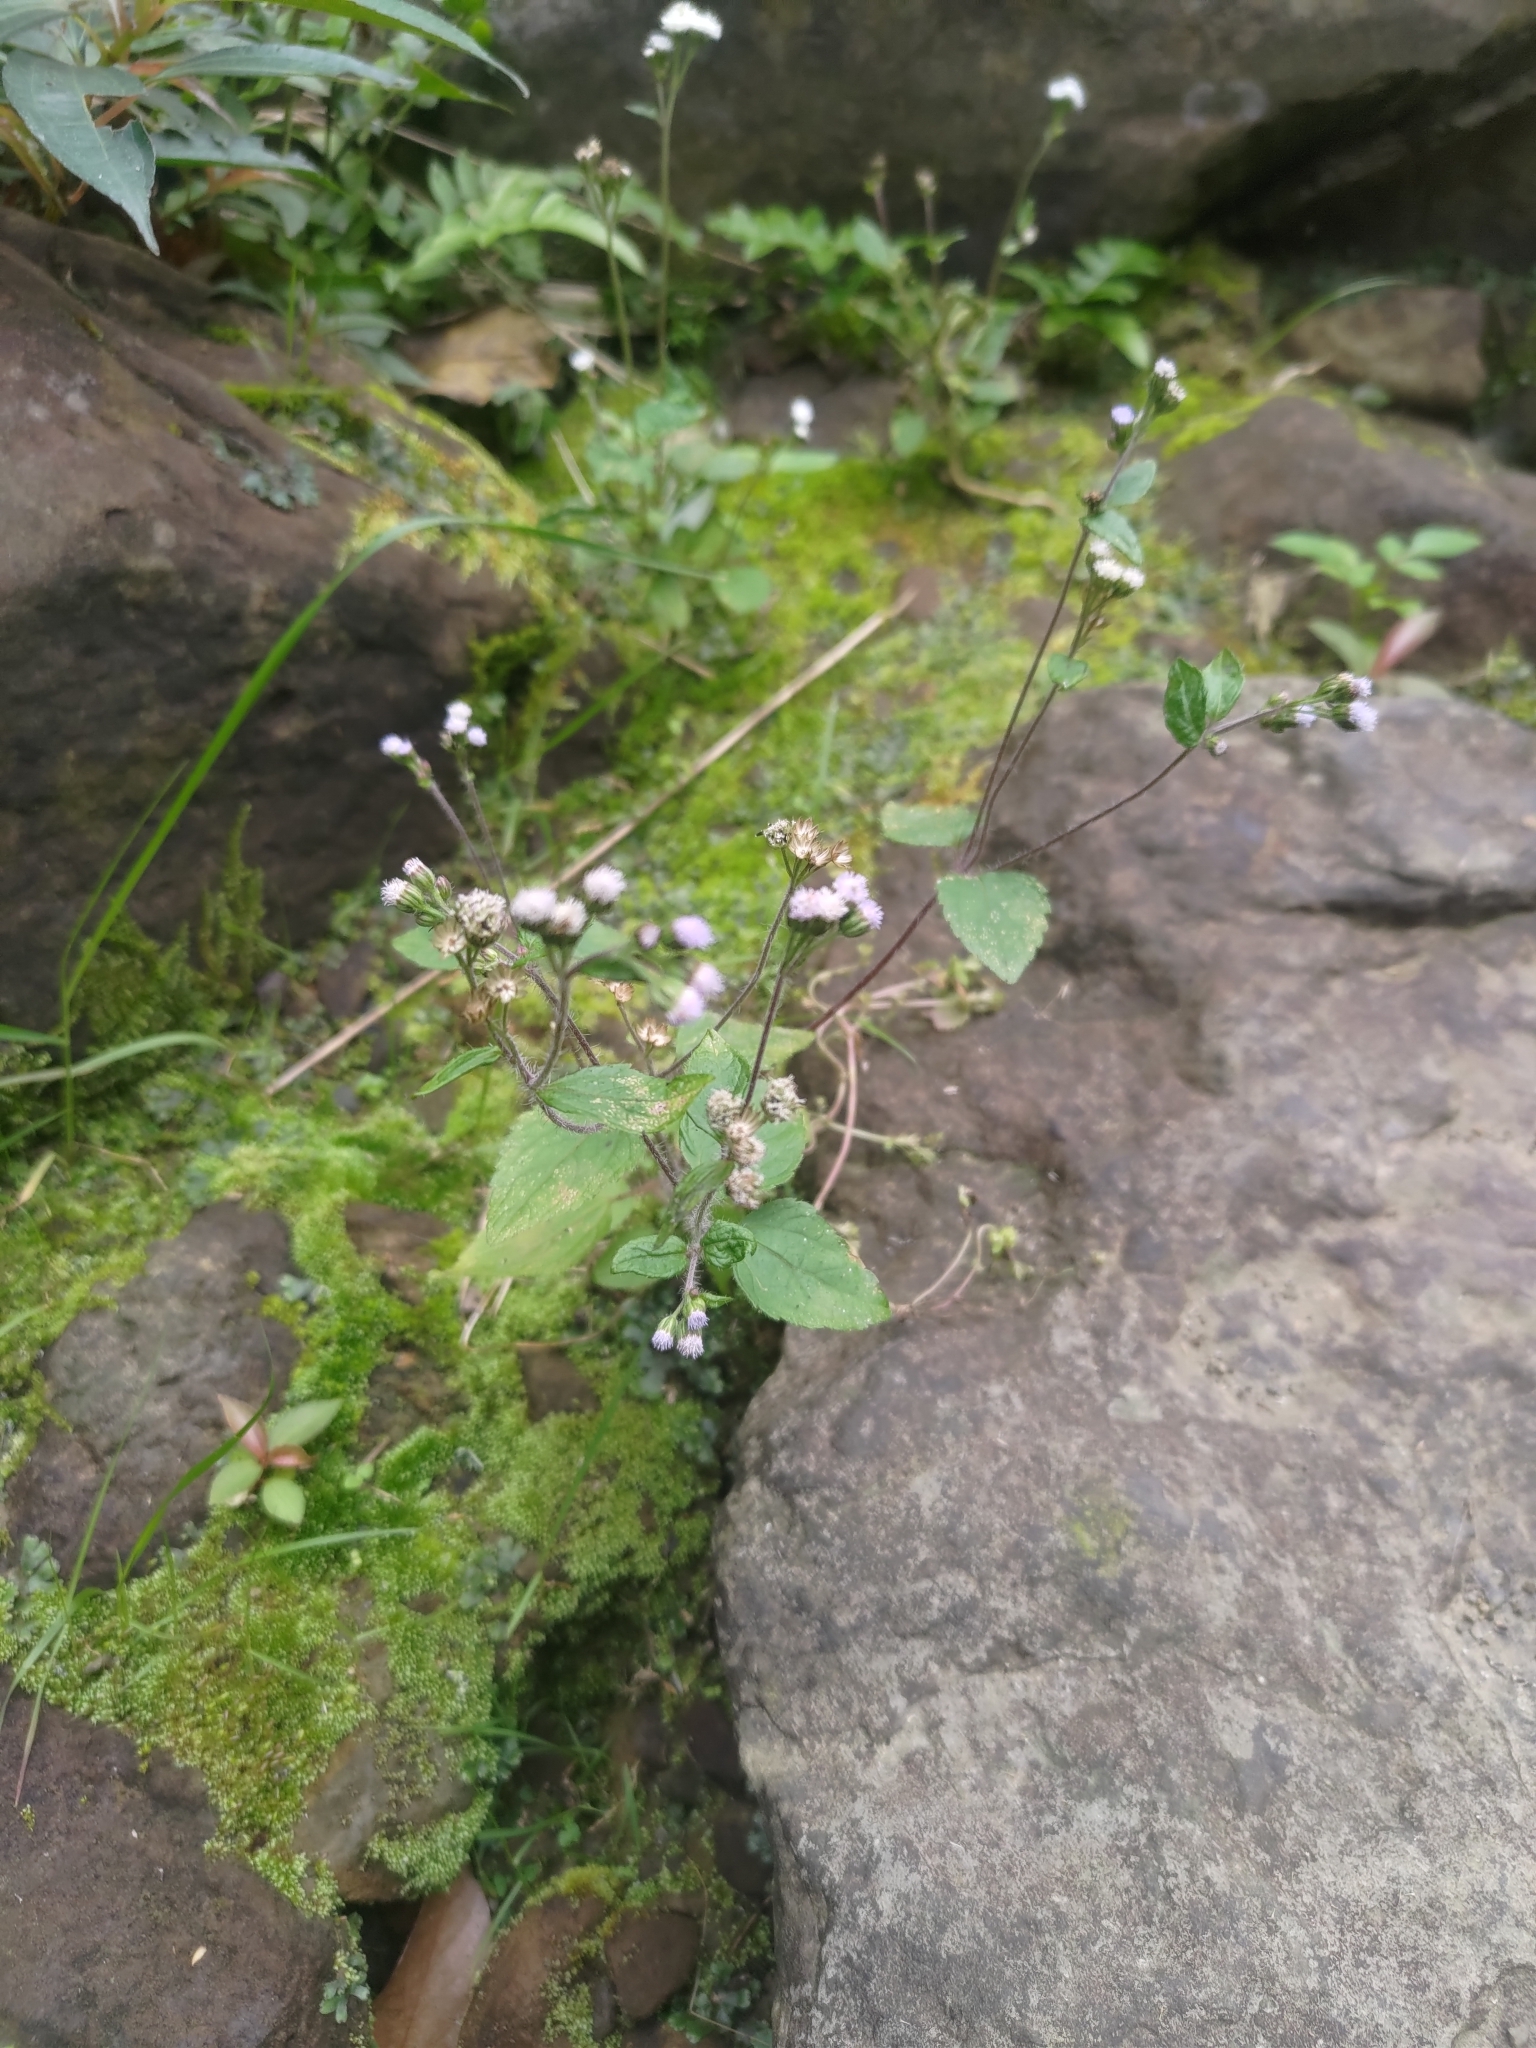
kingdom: Plantae
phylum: Tracheophyta
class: Magnoliopsida
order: Asterales
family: Asteraceae
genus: Ageratum
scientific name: Ageratum conyzoides
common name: Tropical whiteweed
